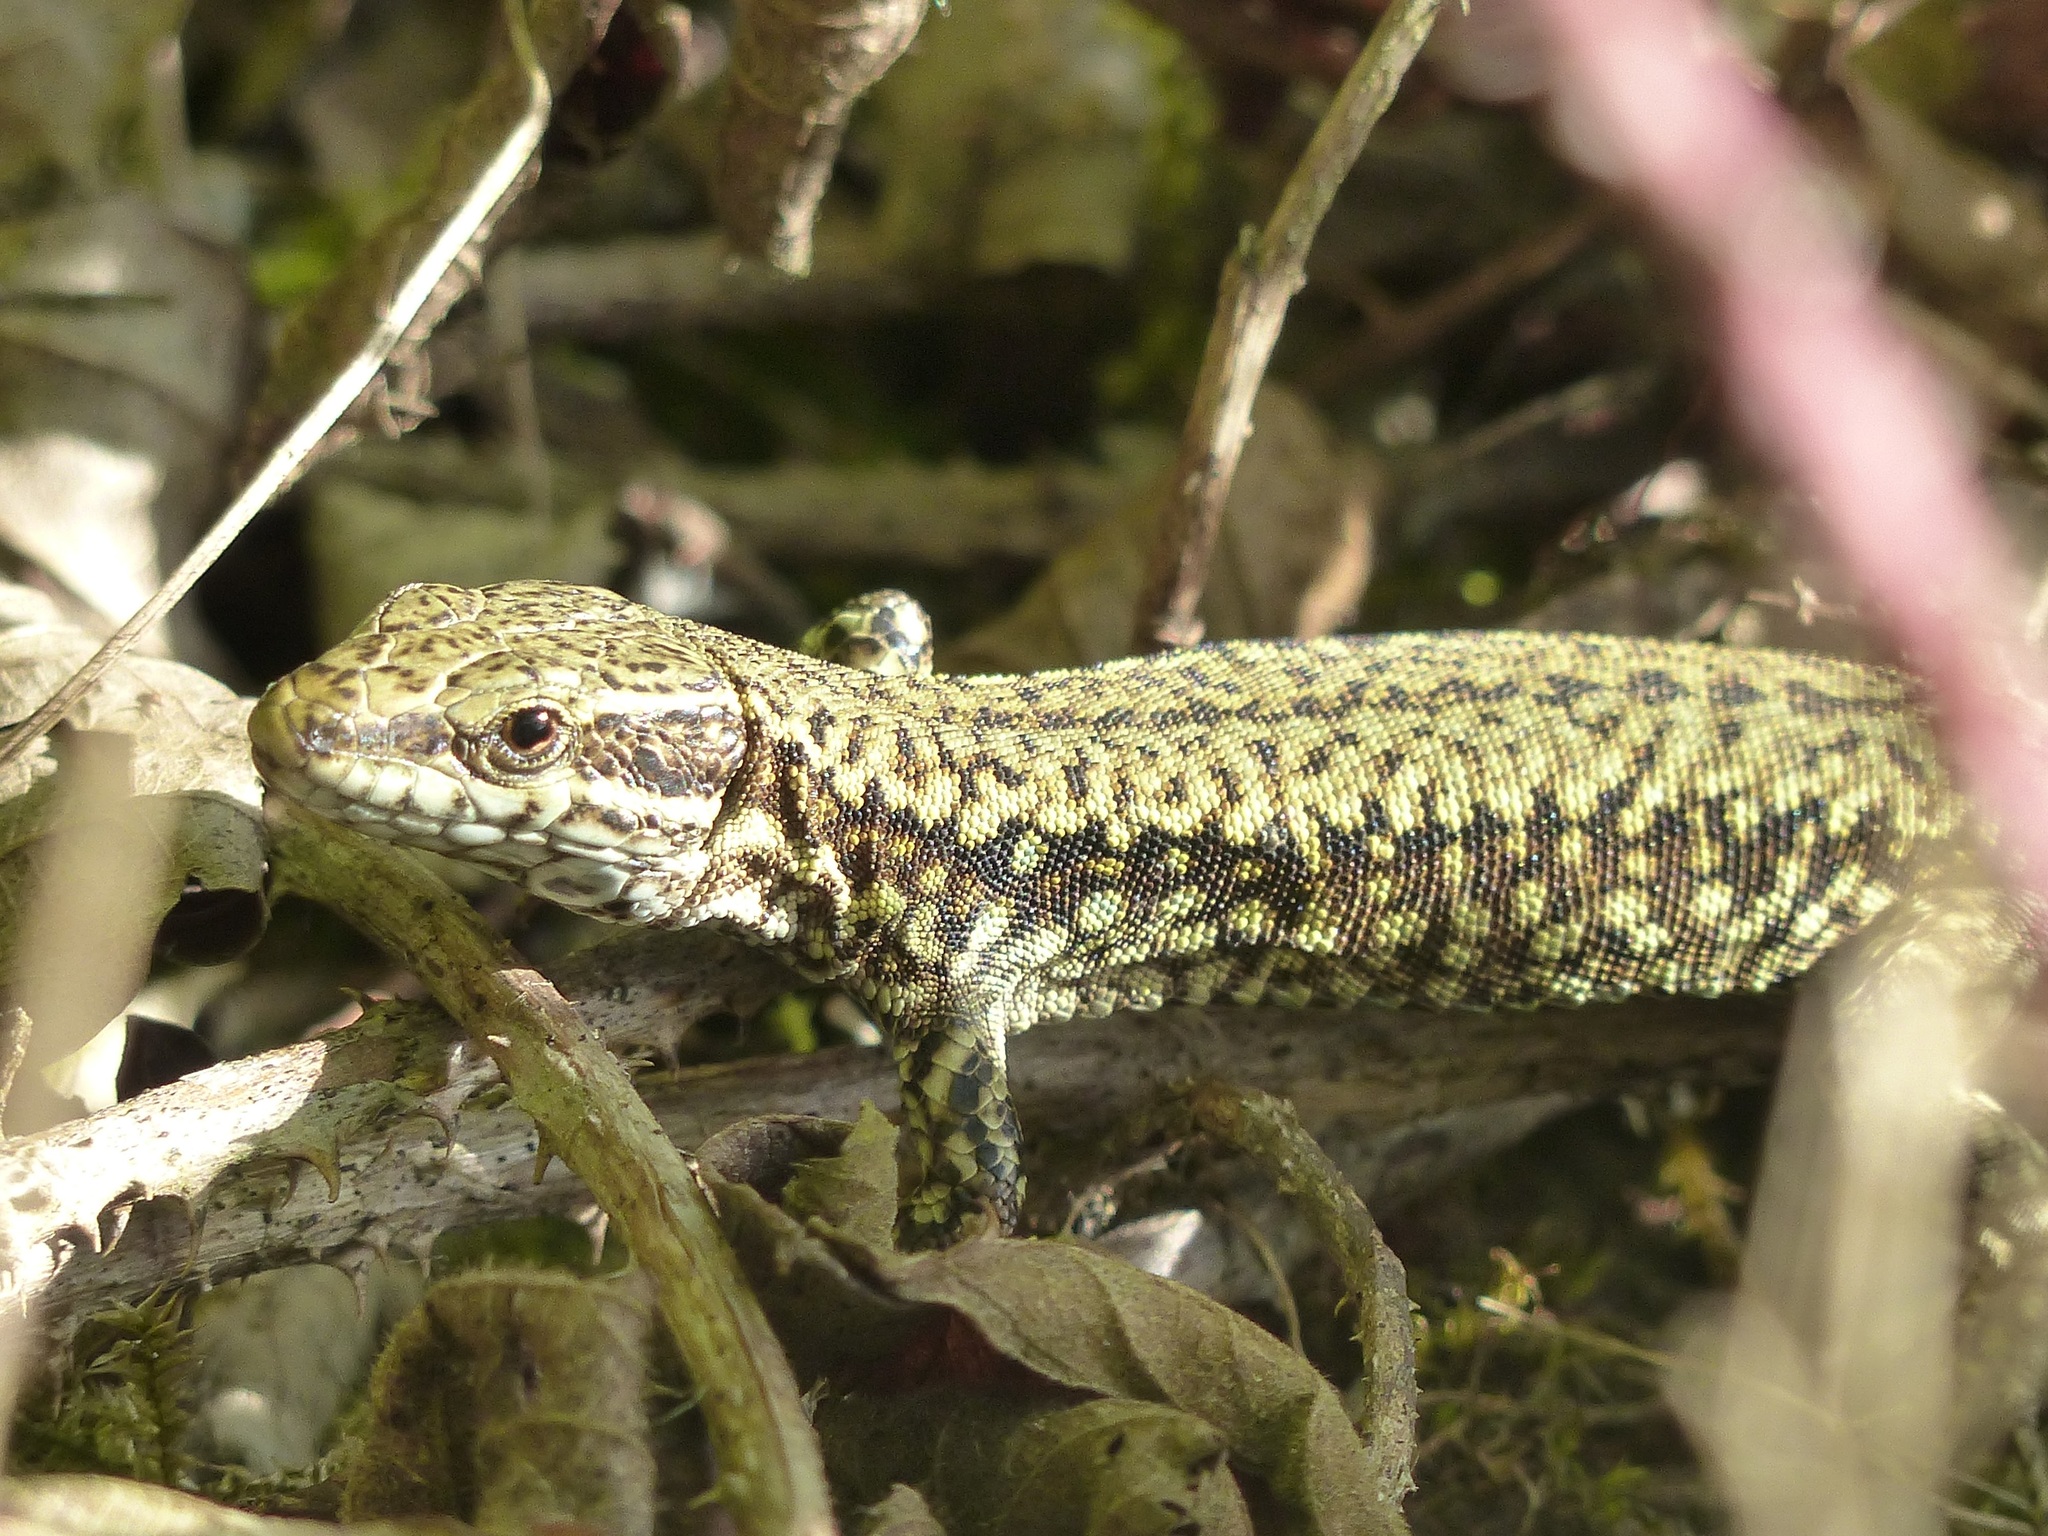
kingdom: Animalia
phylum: Chordata
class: Squamata
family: Lacertidae
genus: Podarcis
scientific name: Podarcis muralis
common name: Common wall lizard
